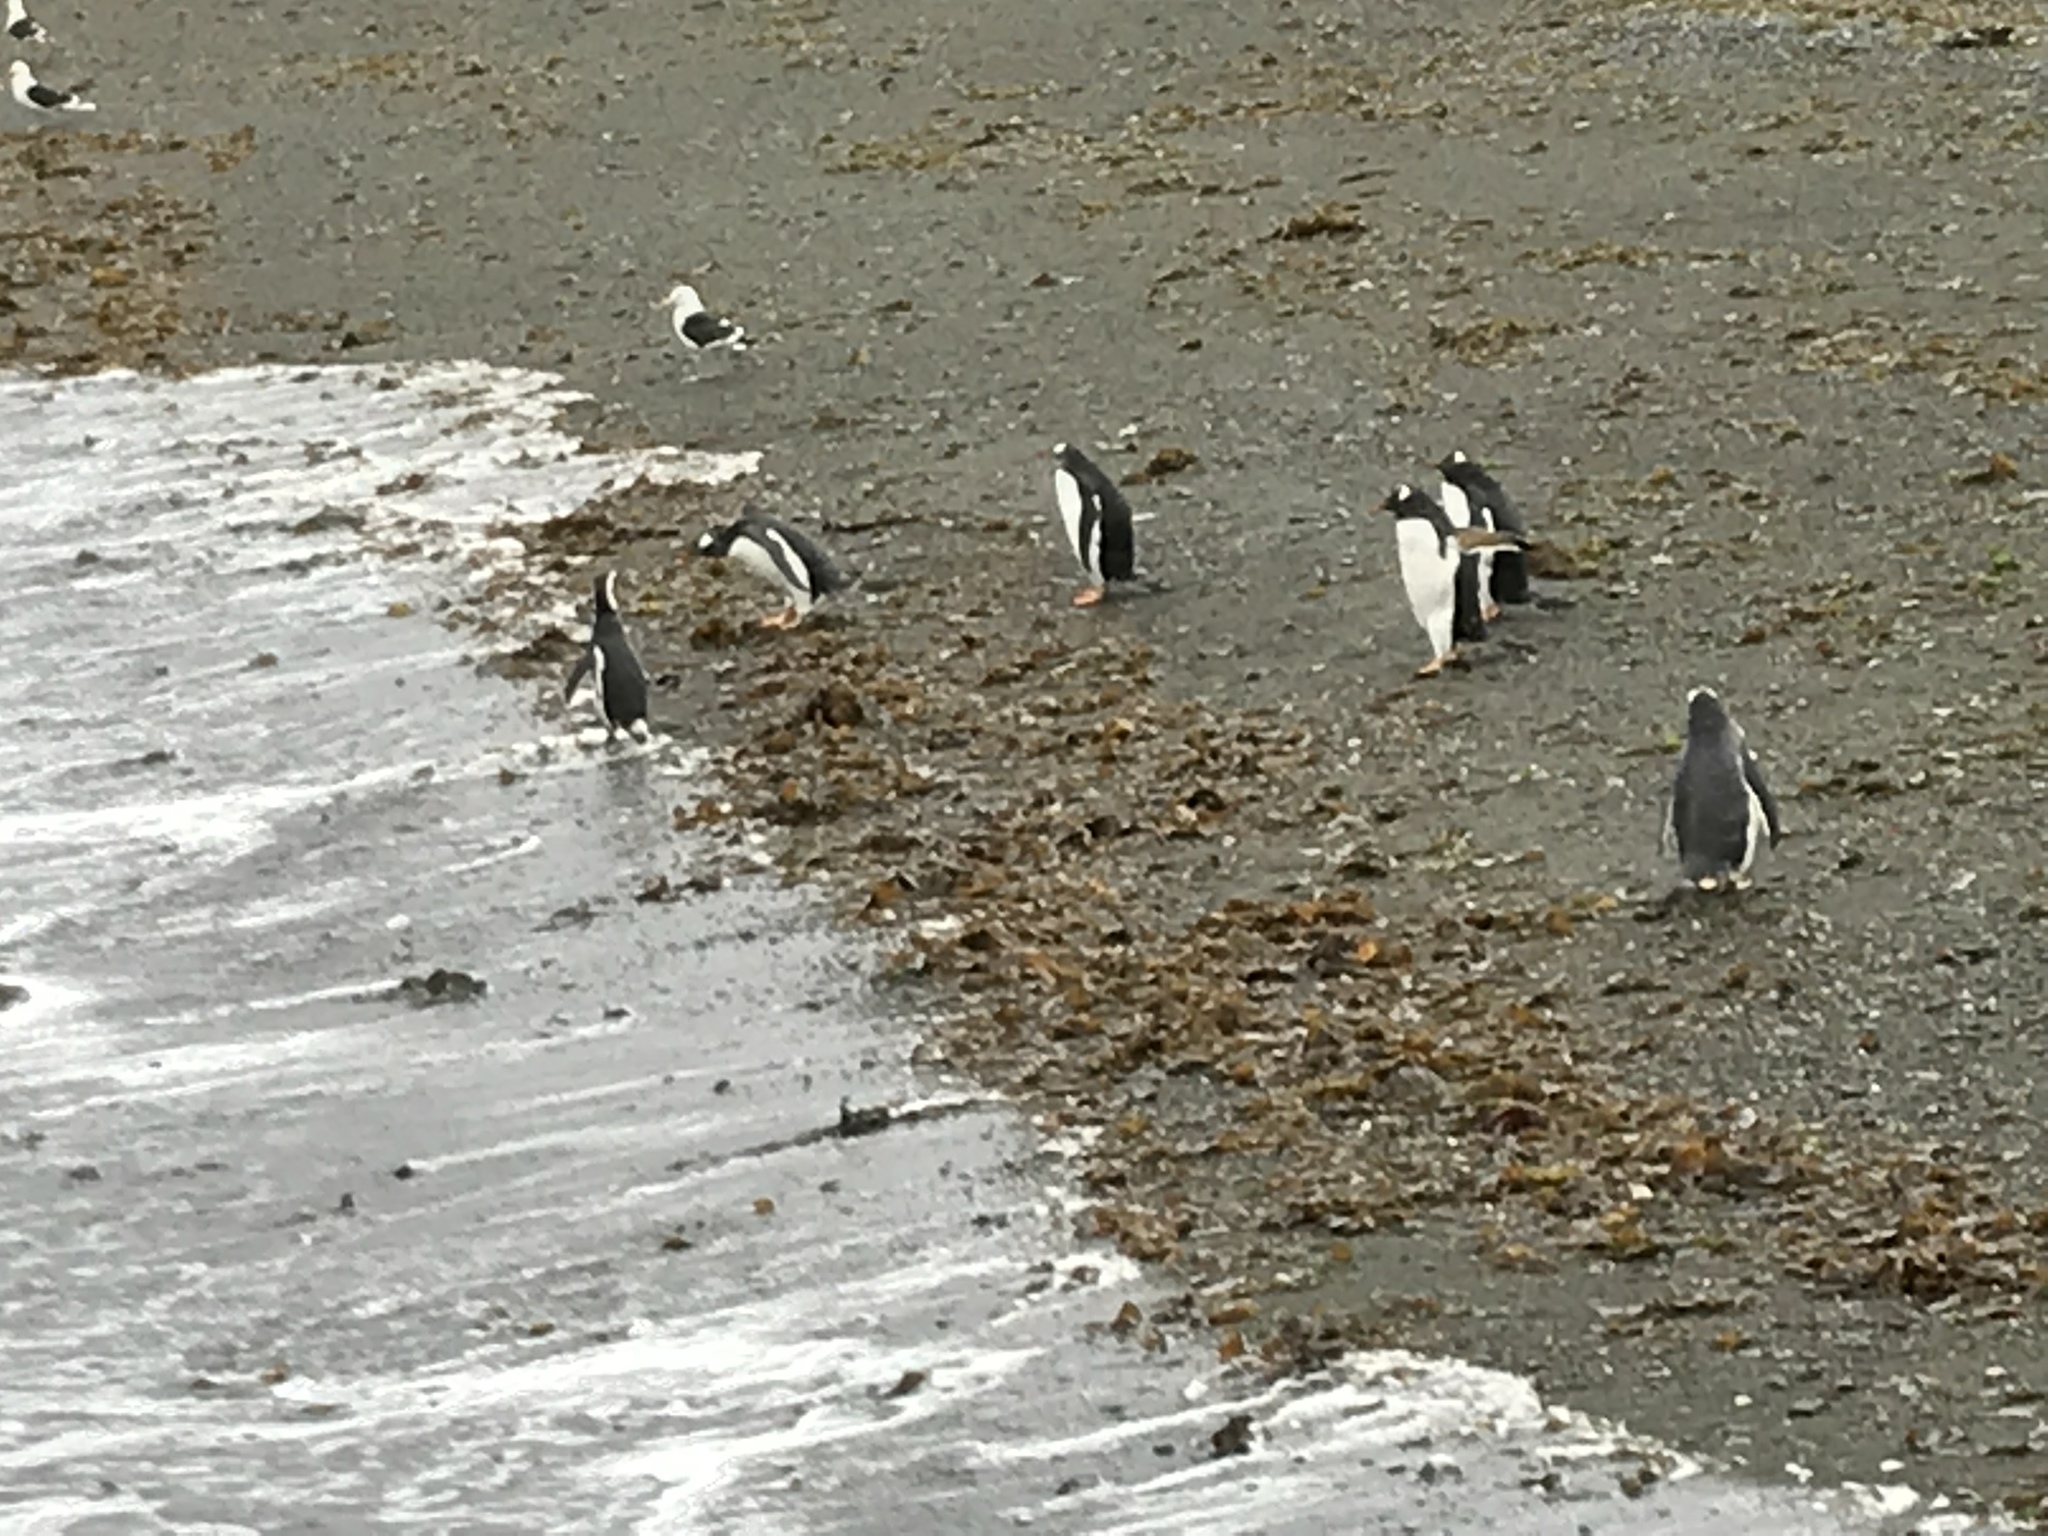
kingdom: Animalia
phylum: Chordata
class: Aves
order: Sphenisciformes
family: Spheniscidae
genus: Pygoscelis
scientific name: Pygoscelis papua
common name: Gentoo penguin
